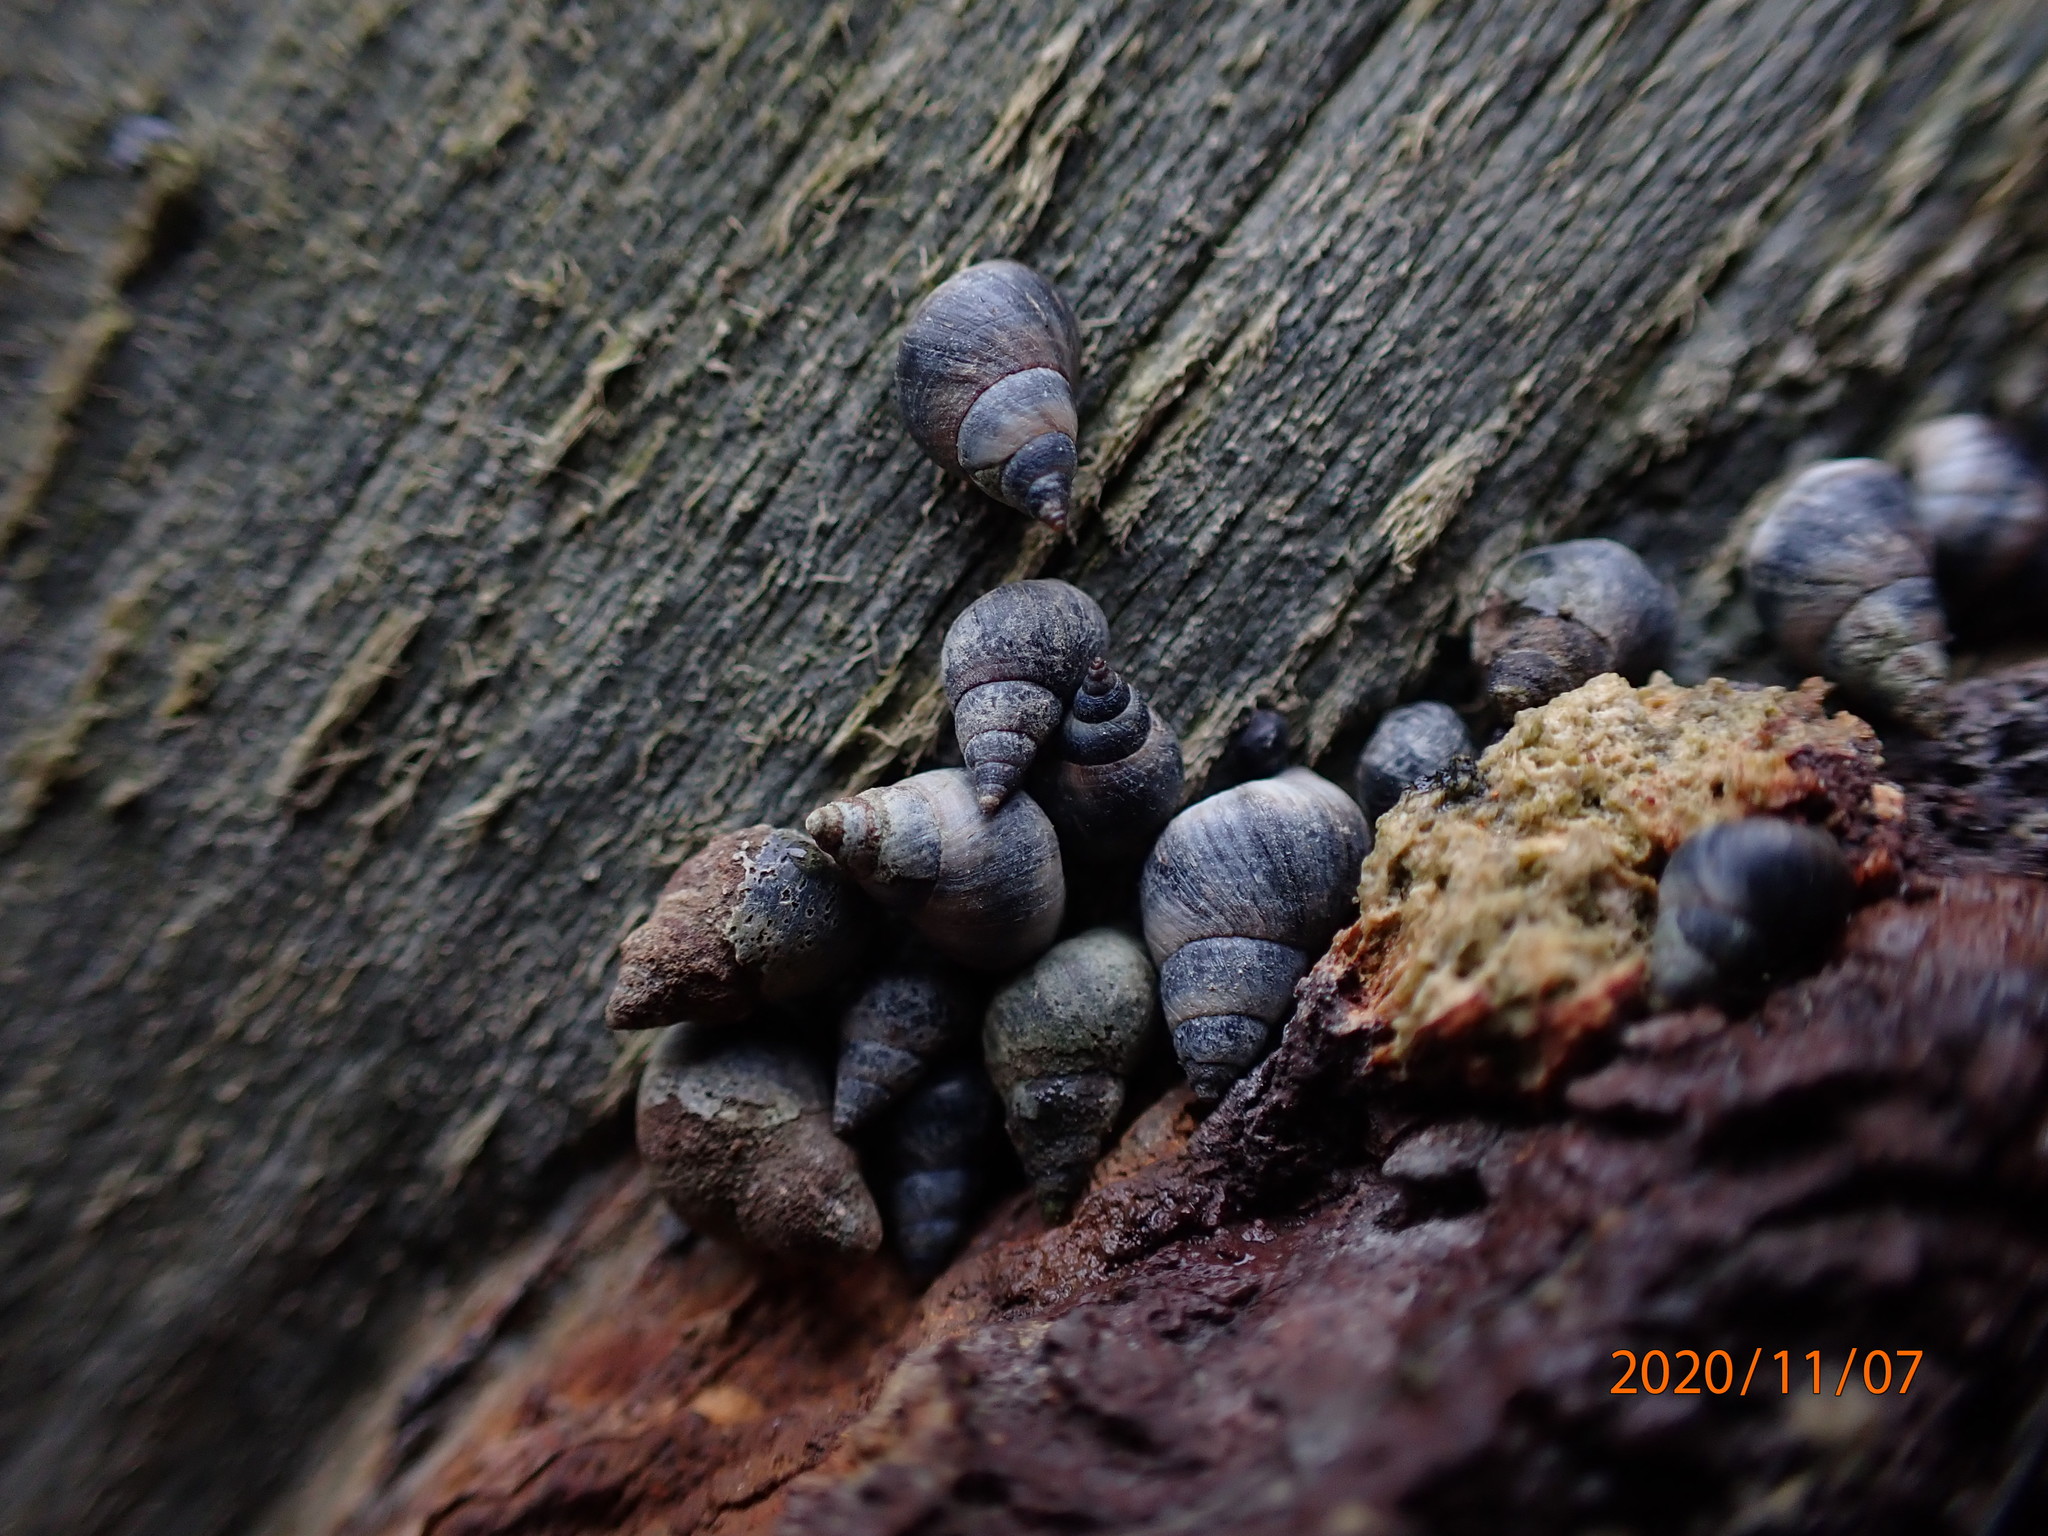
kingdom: Animalia
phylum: Mollusca
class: Gastropoda
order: Littorinimorpha
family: Littorinidae
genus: Austrolittorina
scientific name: Austrolittorina antipodum
